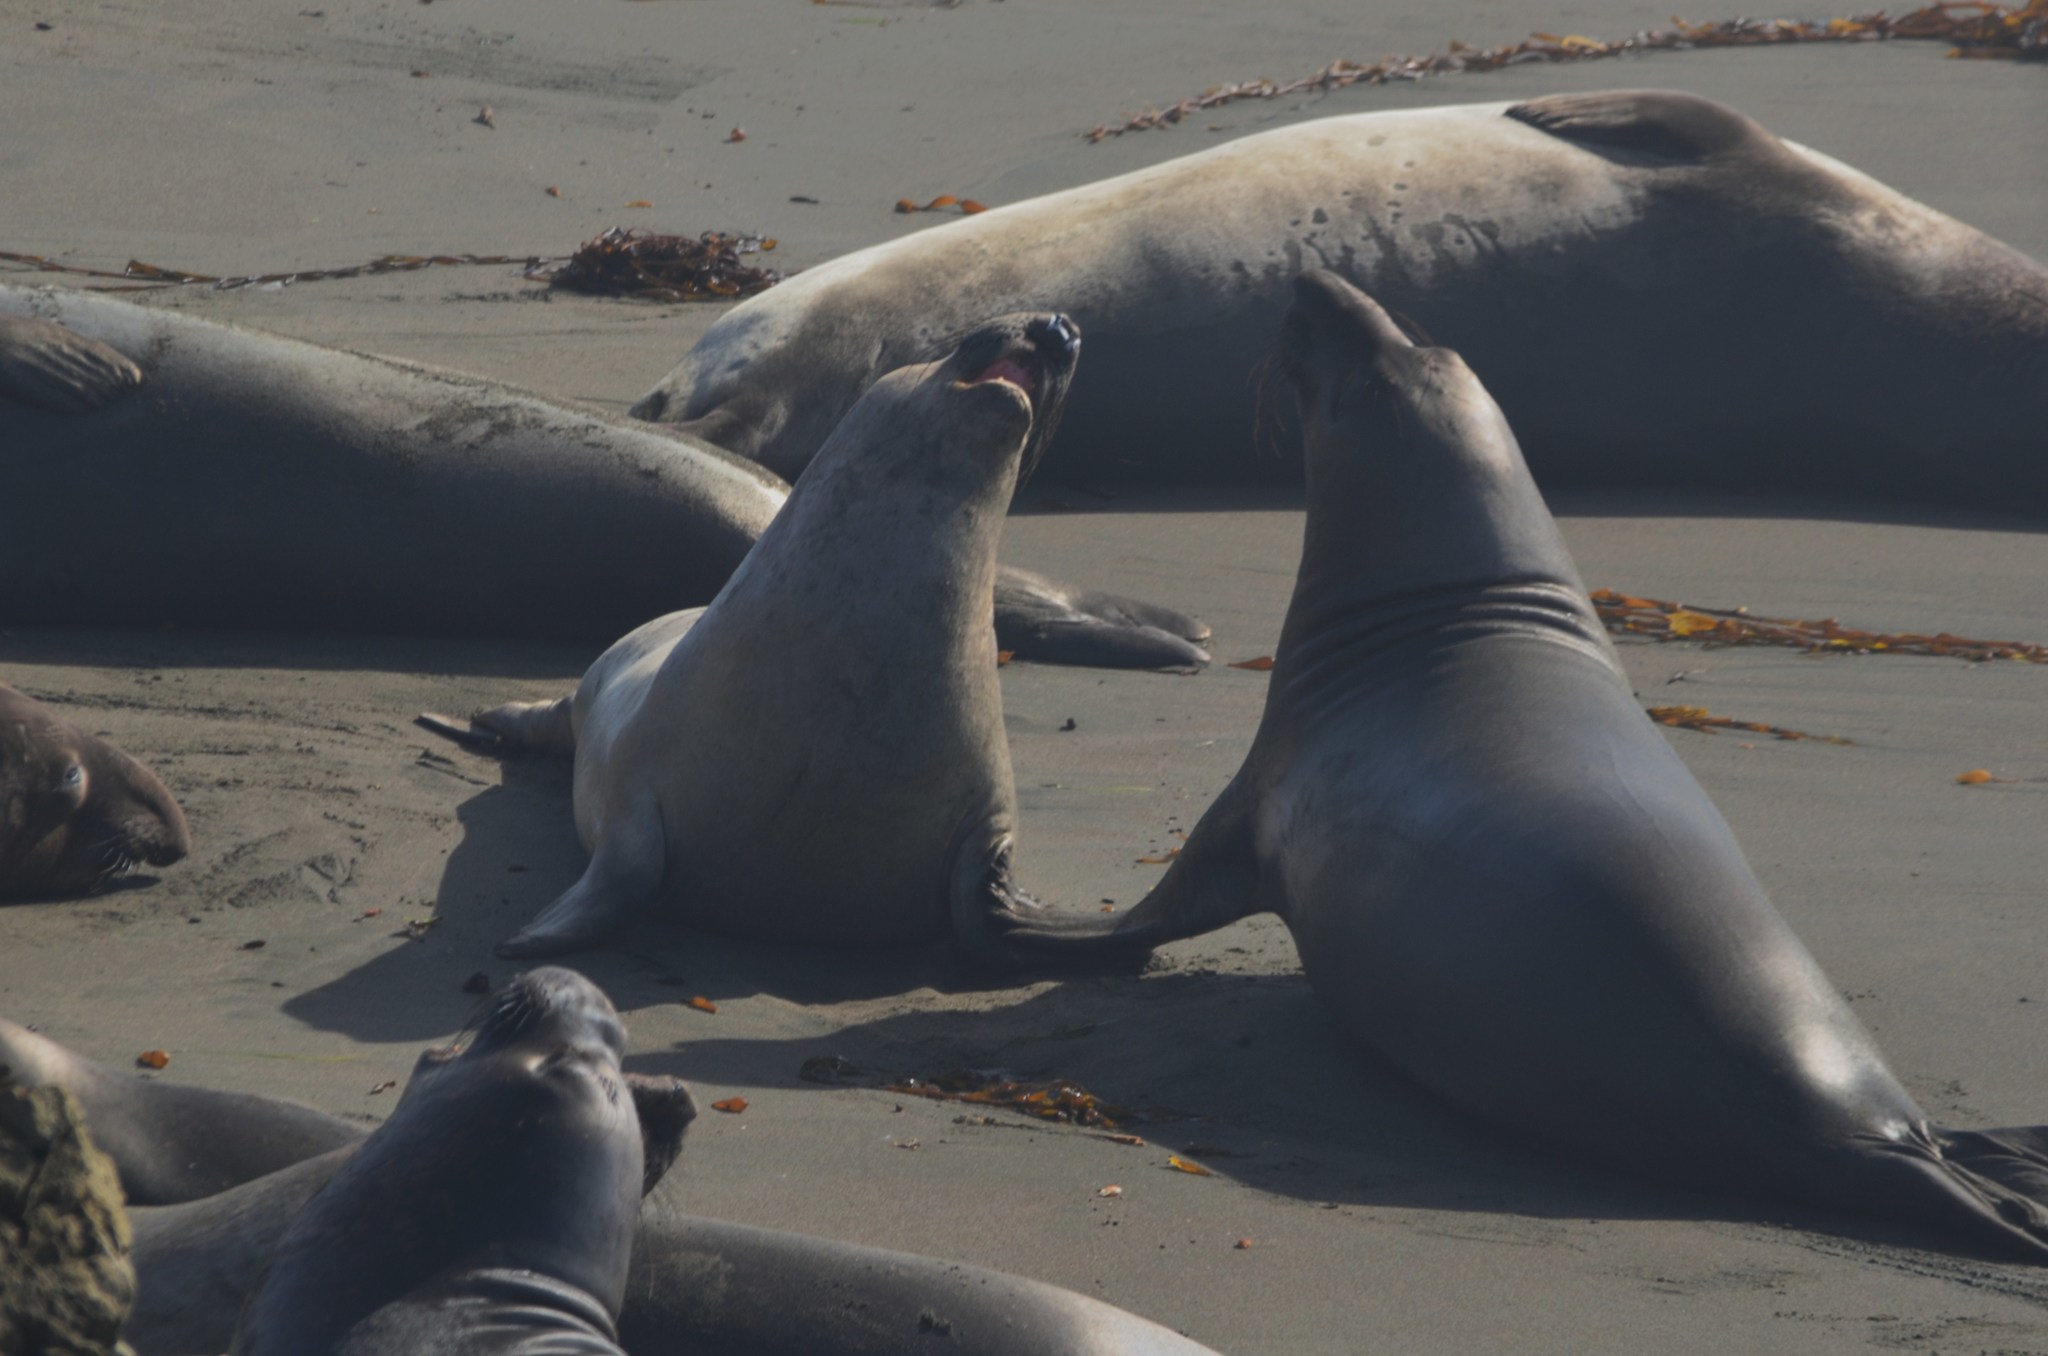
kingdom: Animalia
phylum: Chordata
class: Mammalia
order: Carnivora
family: Phocidae
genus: Mirounga
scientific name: Mirounga angustirostris
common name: Northern elephant seal
